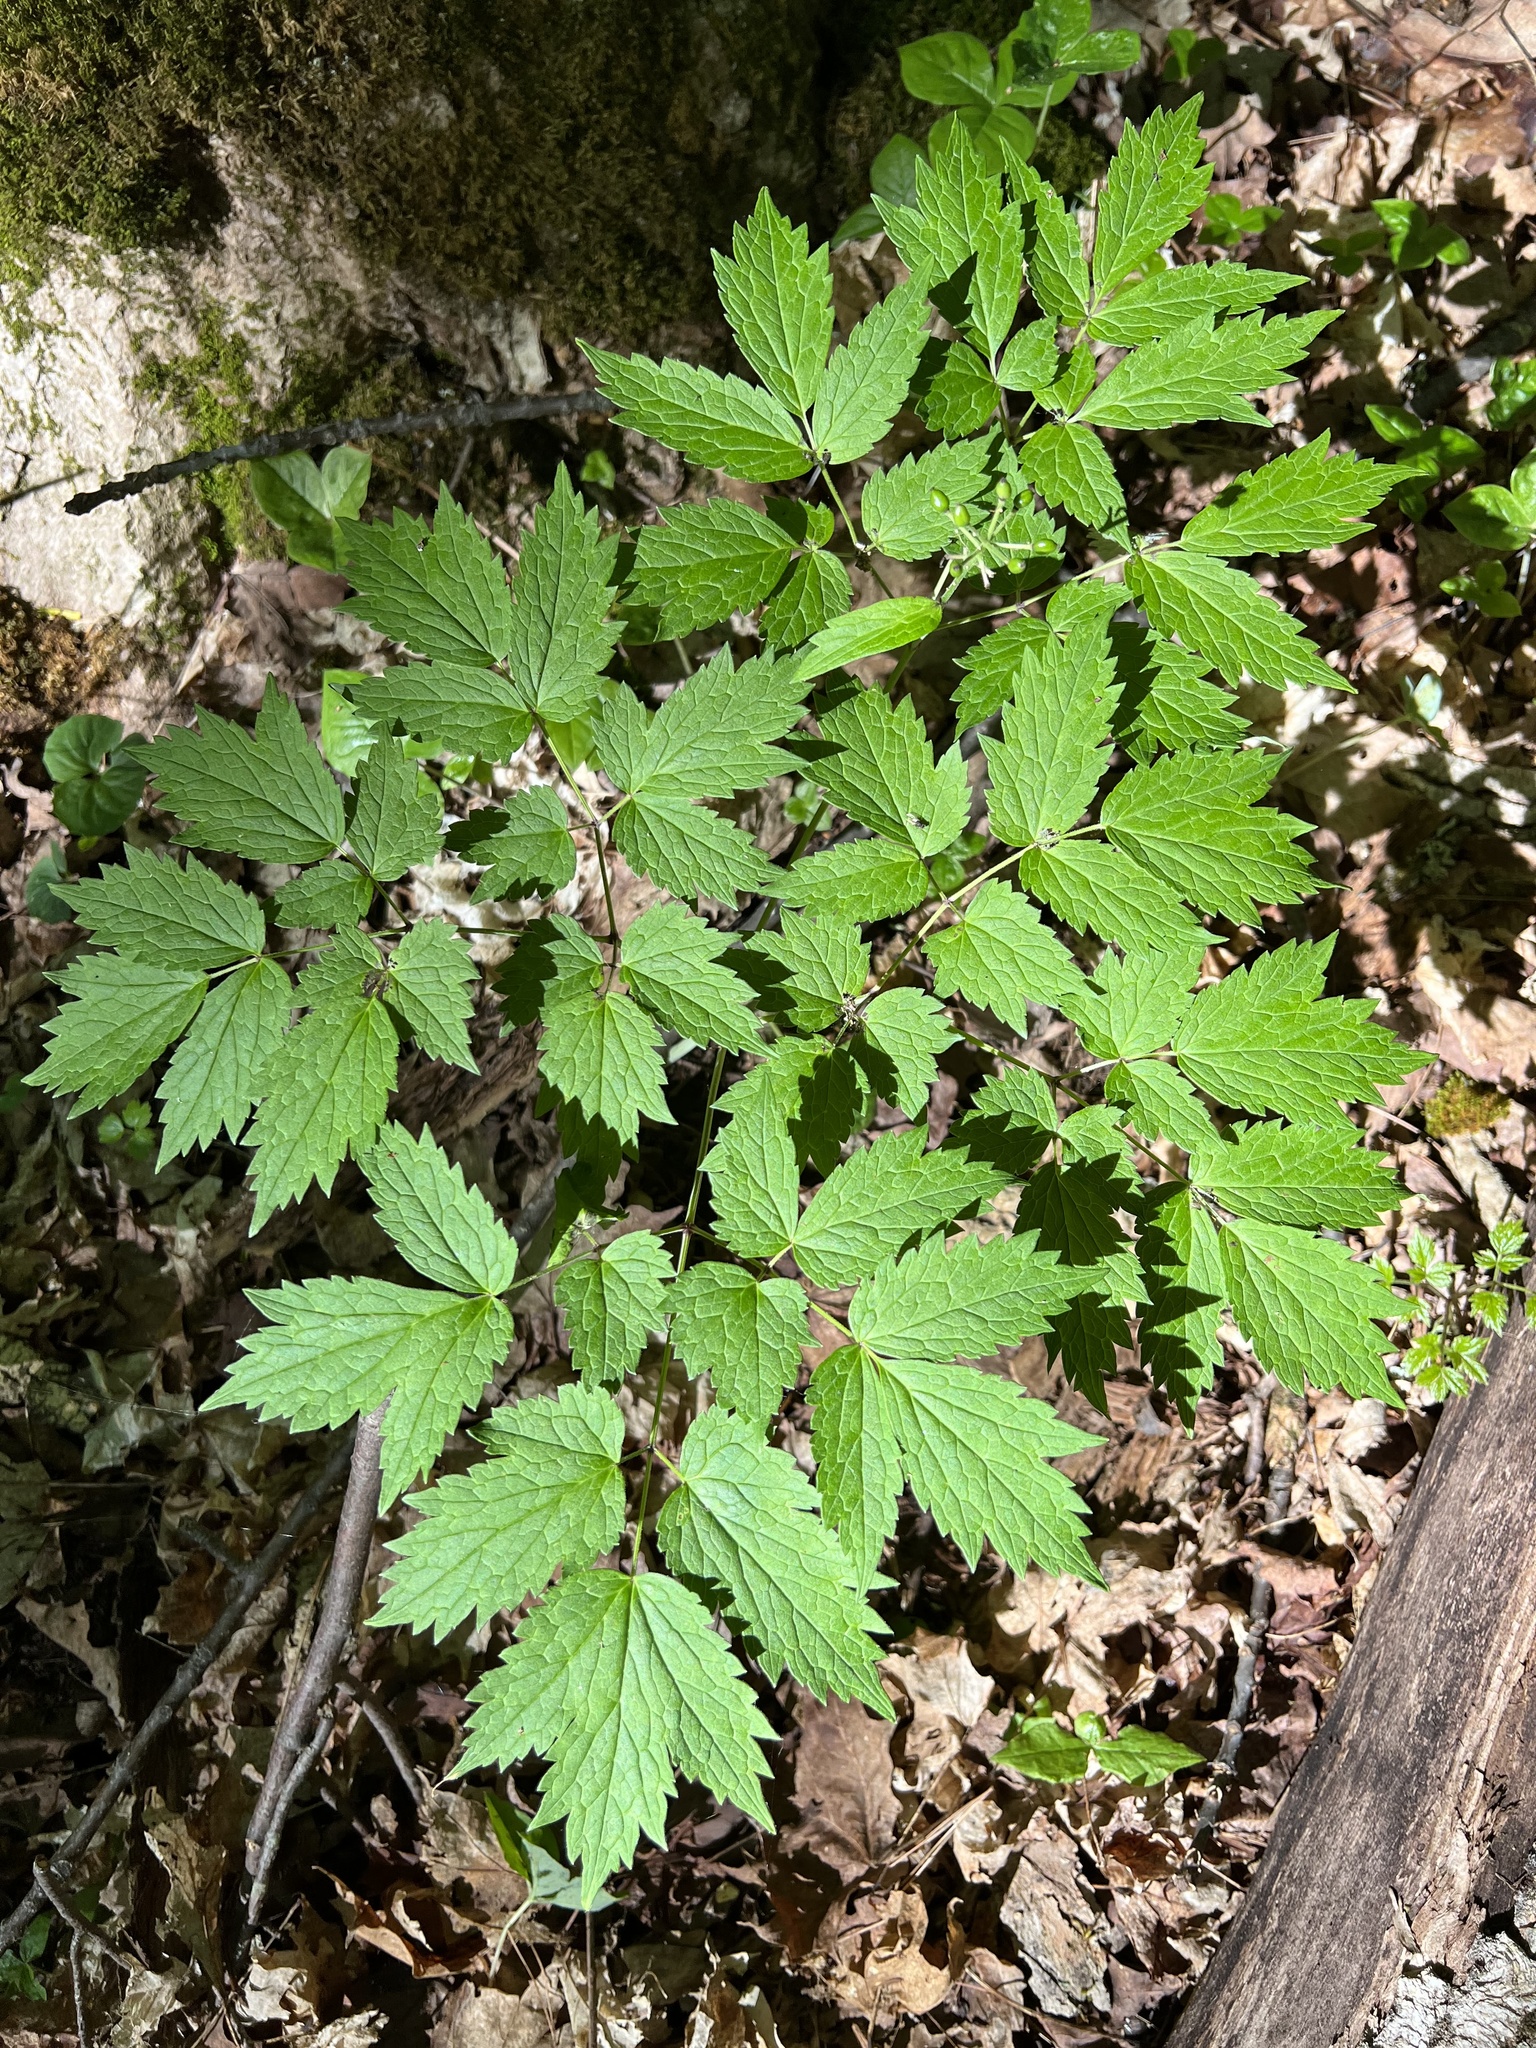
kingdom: Plantae
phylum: Tracheophyta
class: Magnoliopsida
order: Ranunculales
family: Ranunculaceae
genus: Actaea
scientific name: Actaea rubra
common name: Red baneberry
